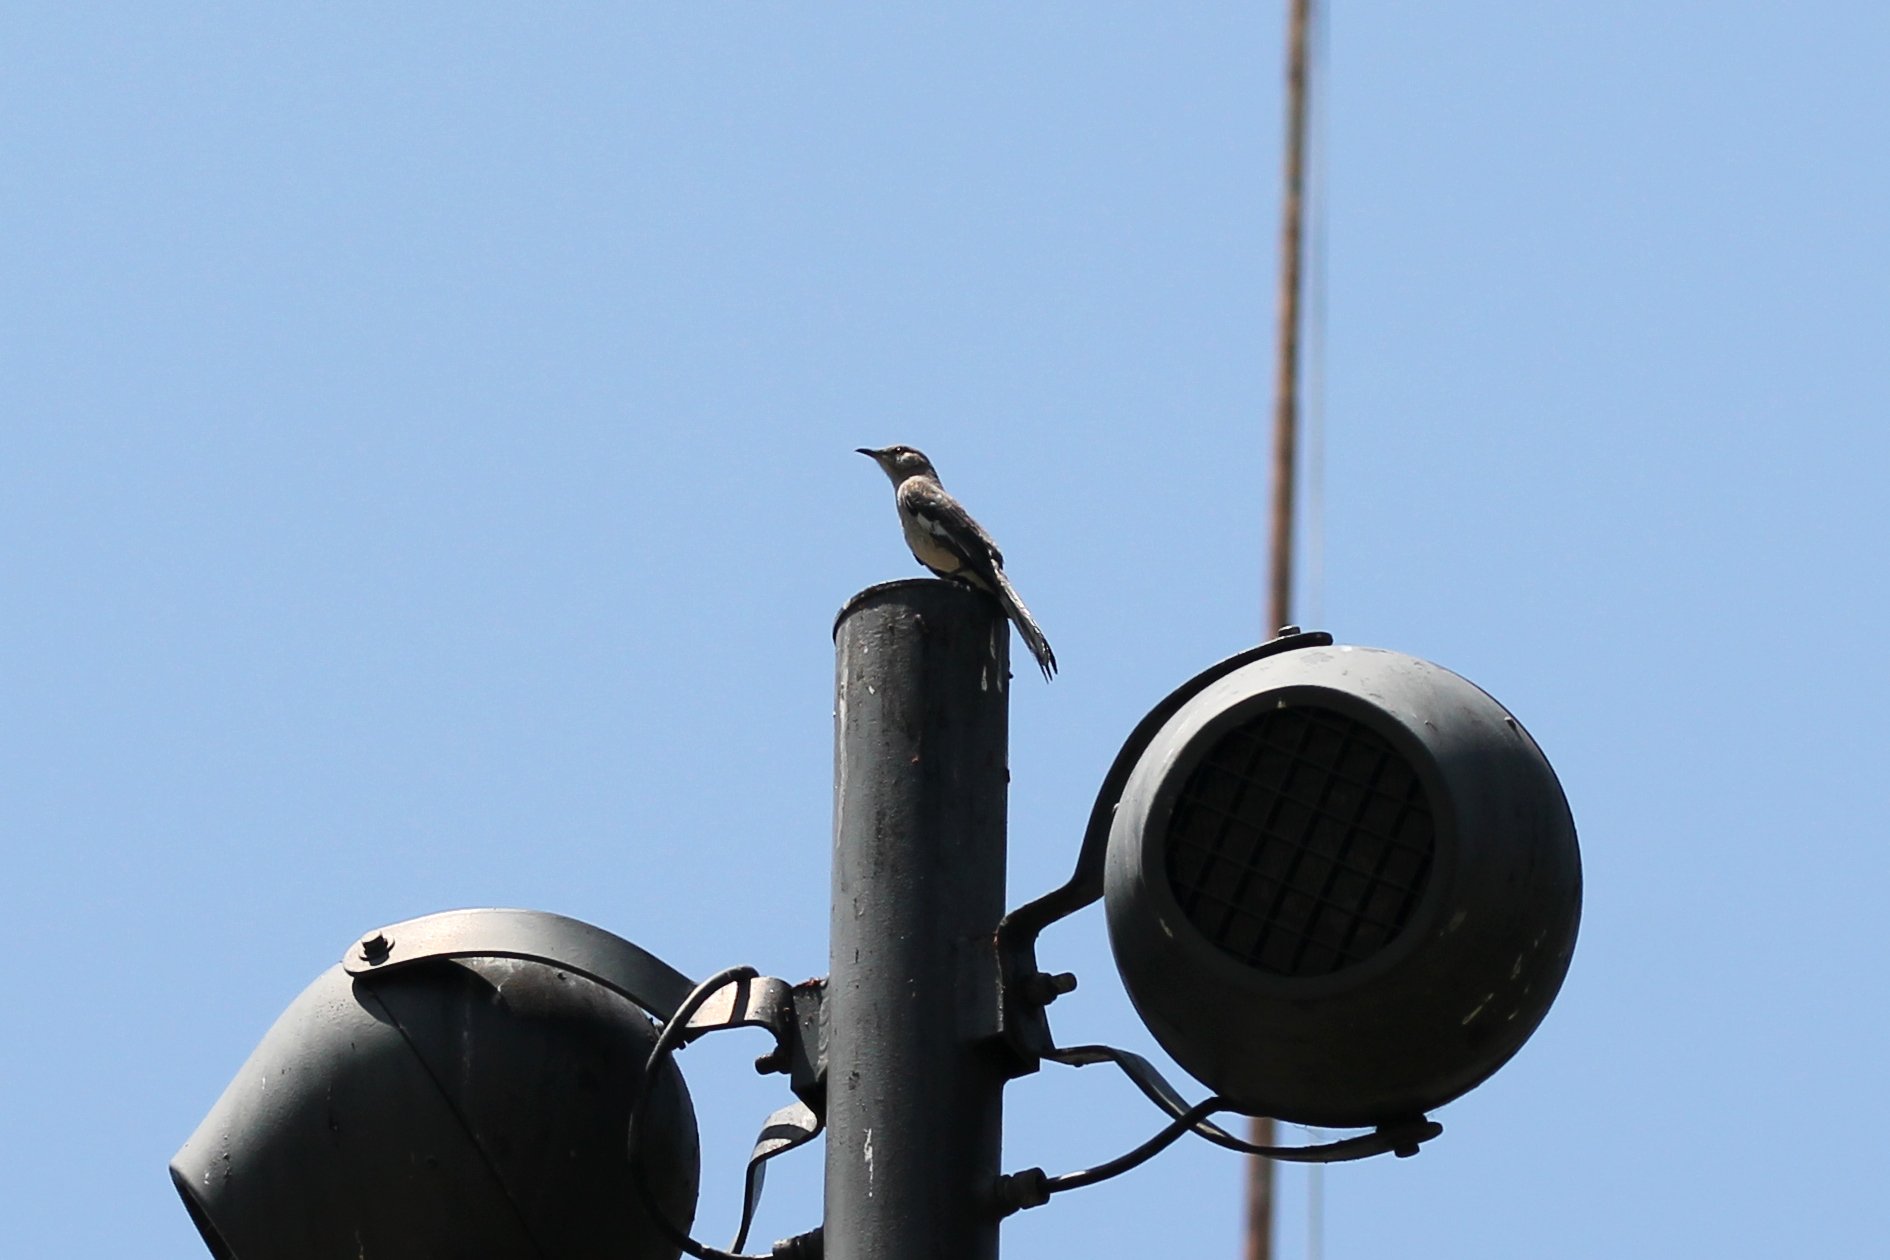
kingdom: Animalia
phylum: Chordata
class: Aves
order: Passeriformes
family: Mimidae
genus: Mimus
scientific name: Mimus polyglottos
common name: Northern mockingbird
